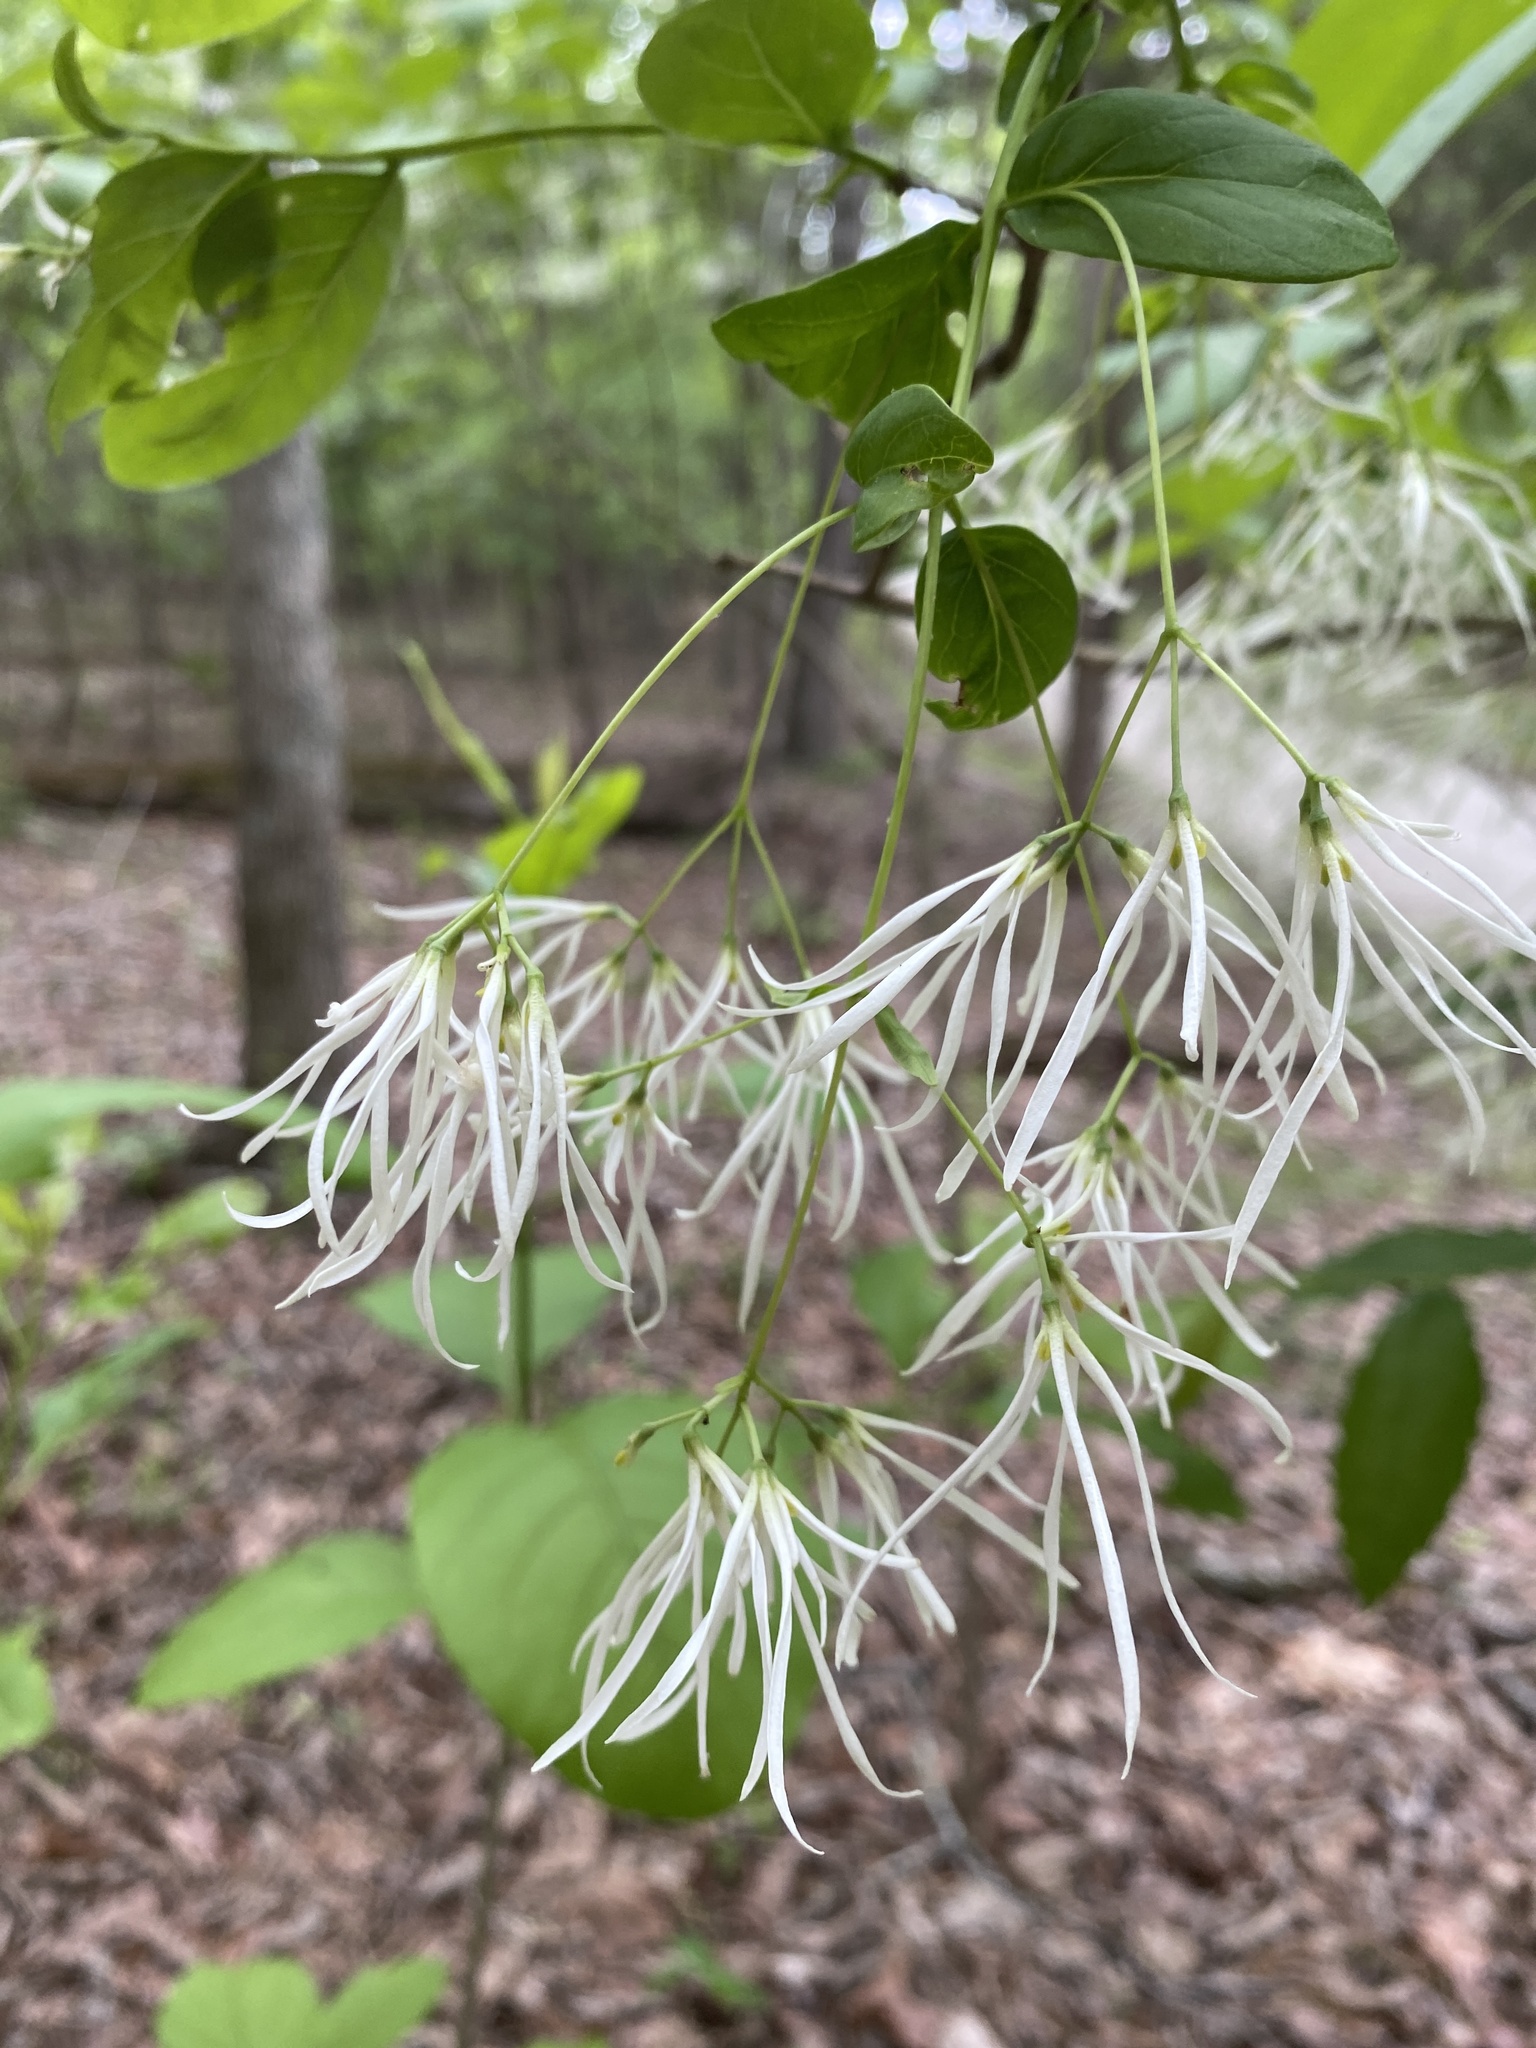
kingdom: Plantae
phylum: Tracheophyta
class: Magnoliopsida
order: Lamiales
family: Oleaceae
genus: Chionanthus
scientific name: Chionanthus virginicus
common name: American fringetree
